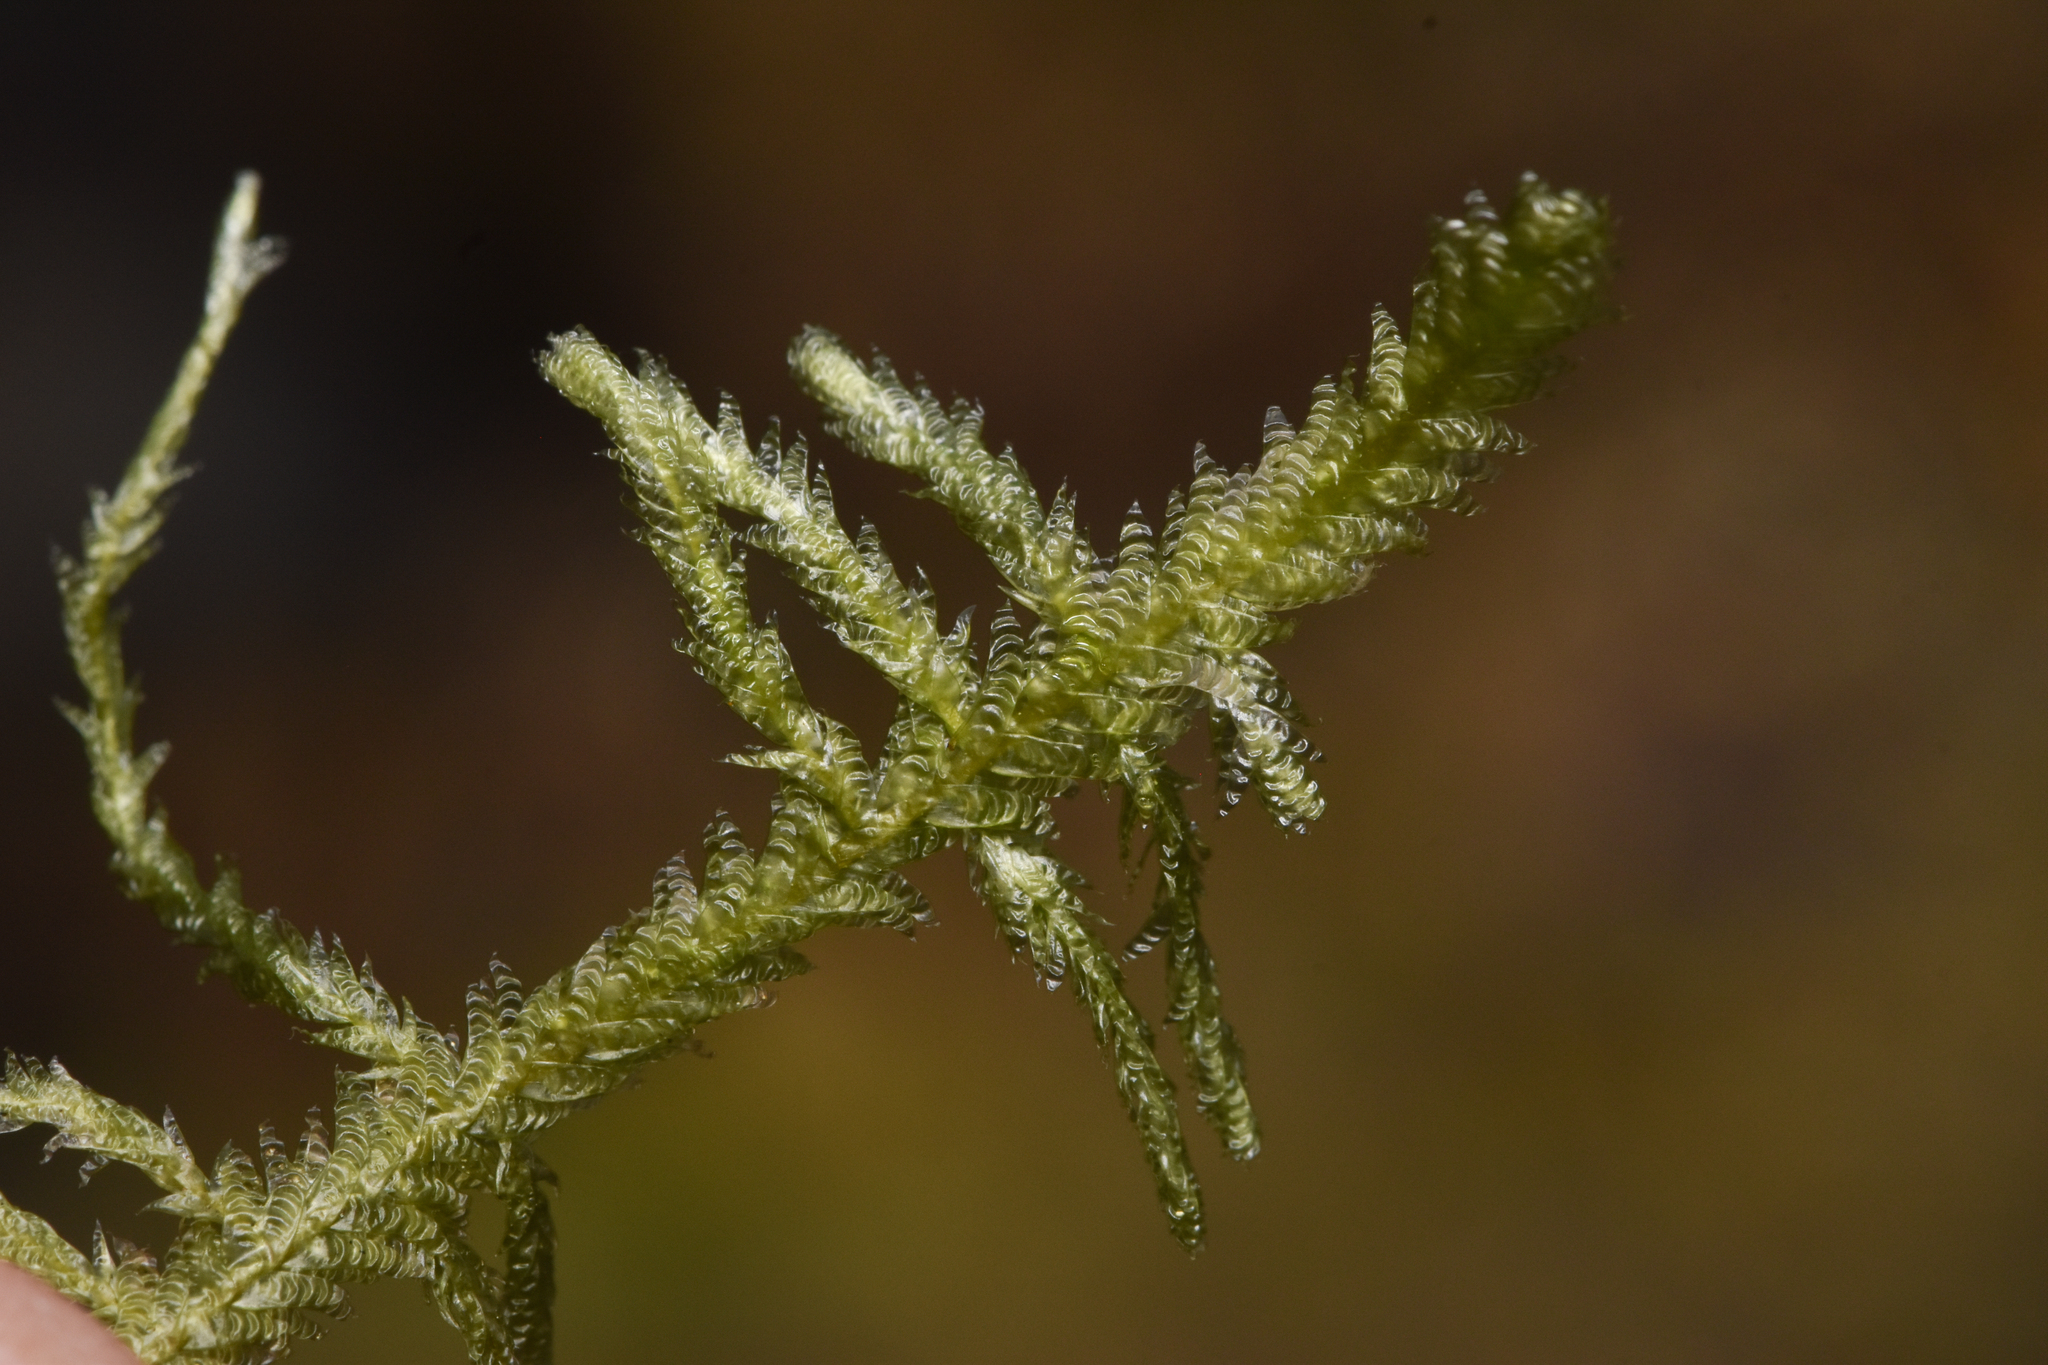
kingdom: Plantae
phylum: Bryophyta
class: Bryopsida
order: Hypnales
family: Neckeraceae
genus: Neckera
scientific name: Neckera douglasii
